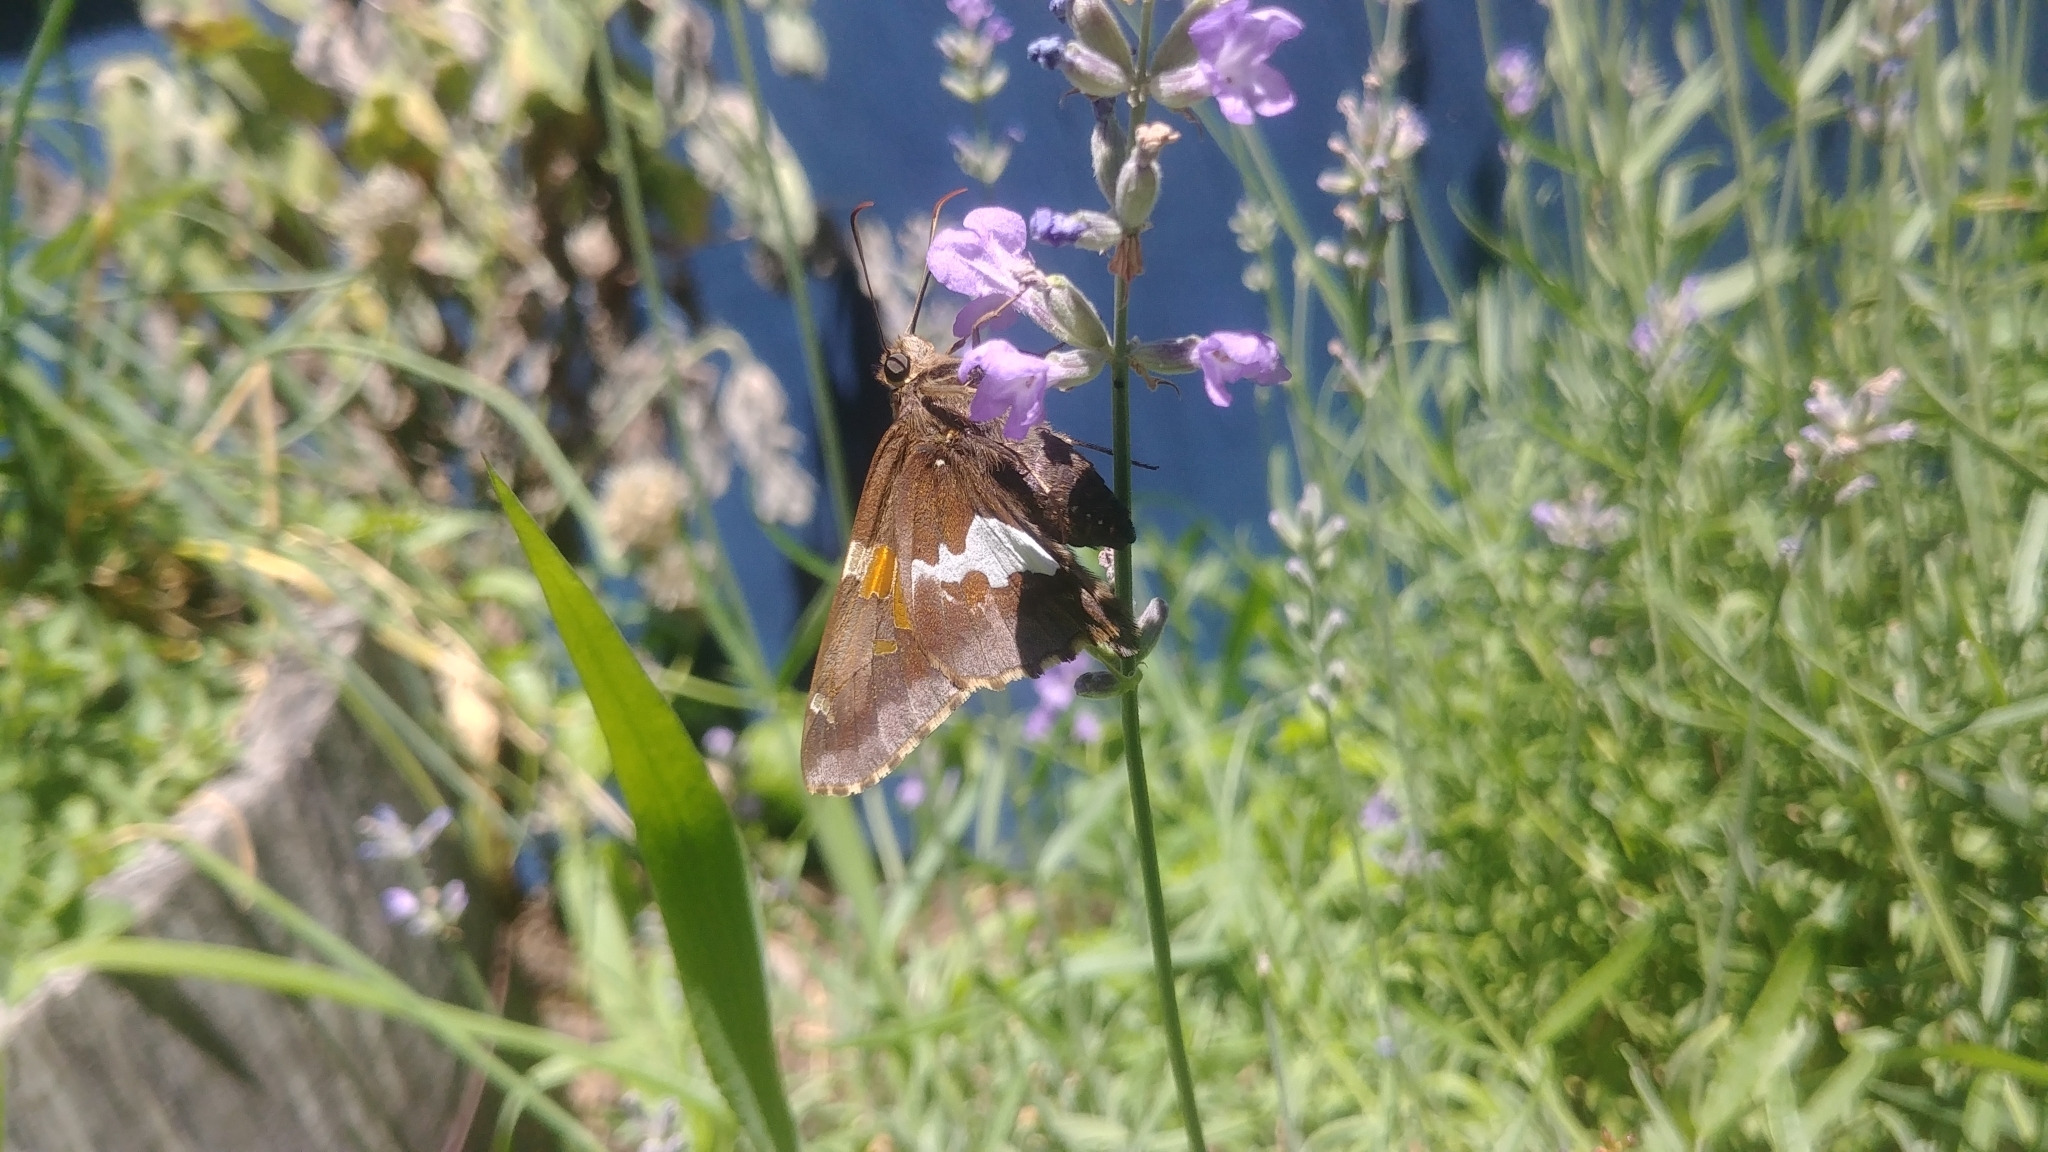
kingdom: Animalia
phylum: Arthropoda
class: Insecta
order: Lepidoptera
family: Hesperiidae
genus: Epargyreus
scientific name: Epargyreus clarus
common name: Silver-spotted skipper
